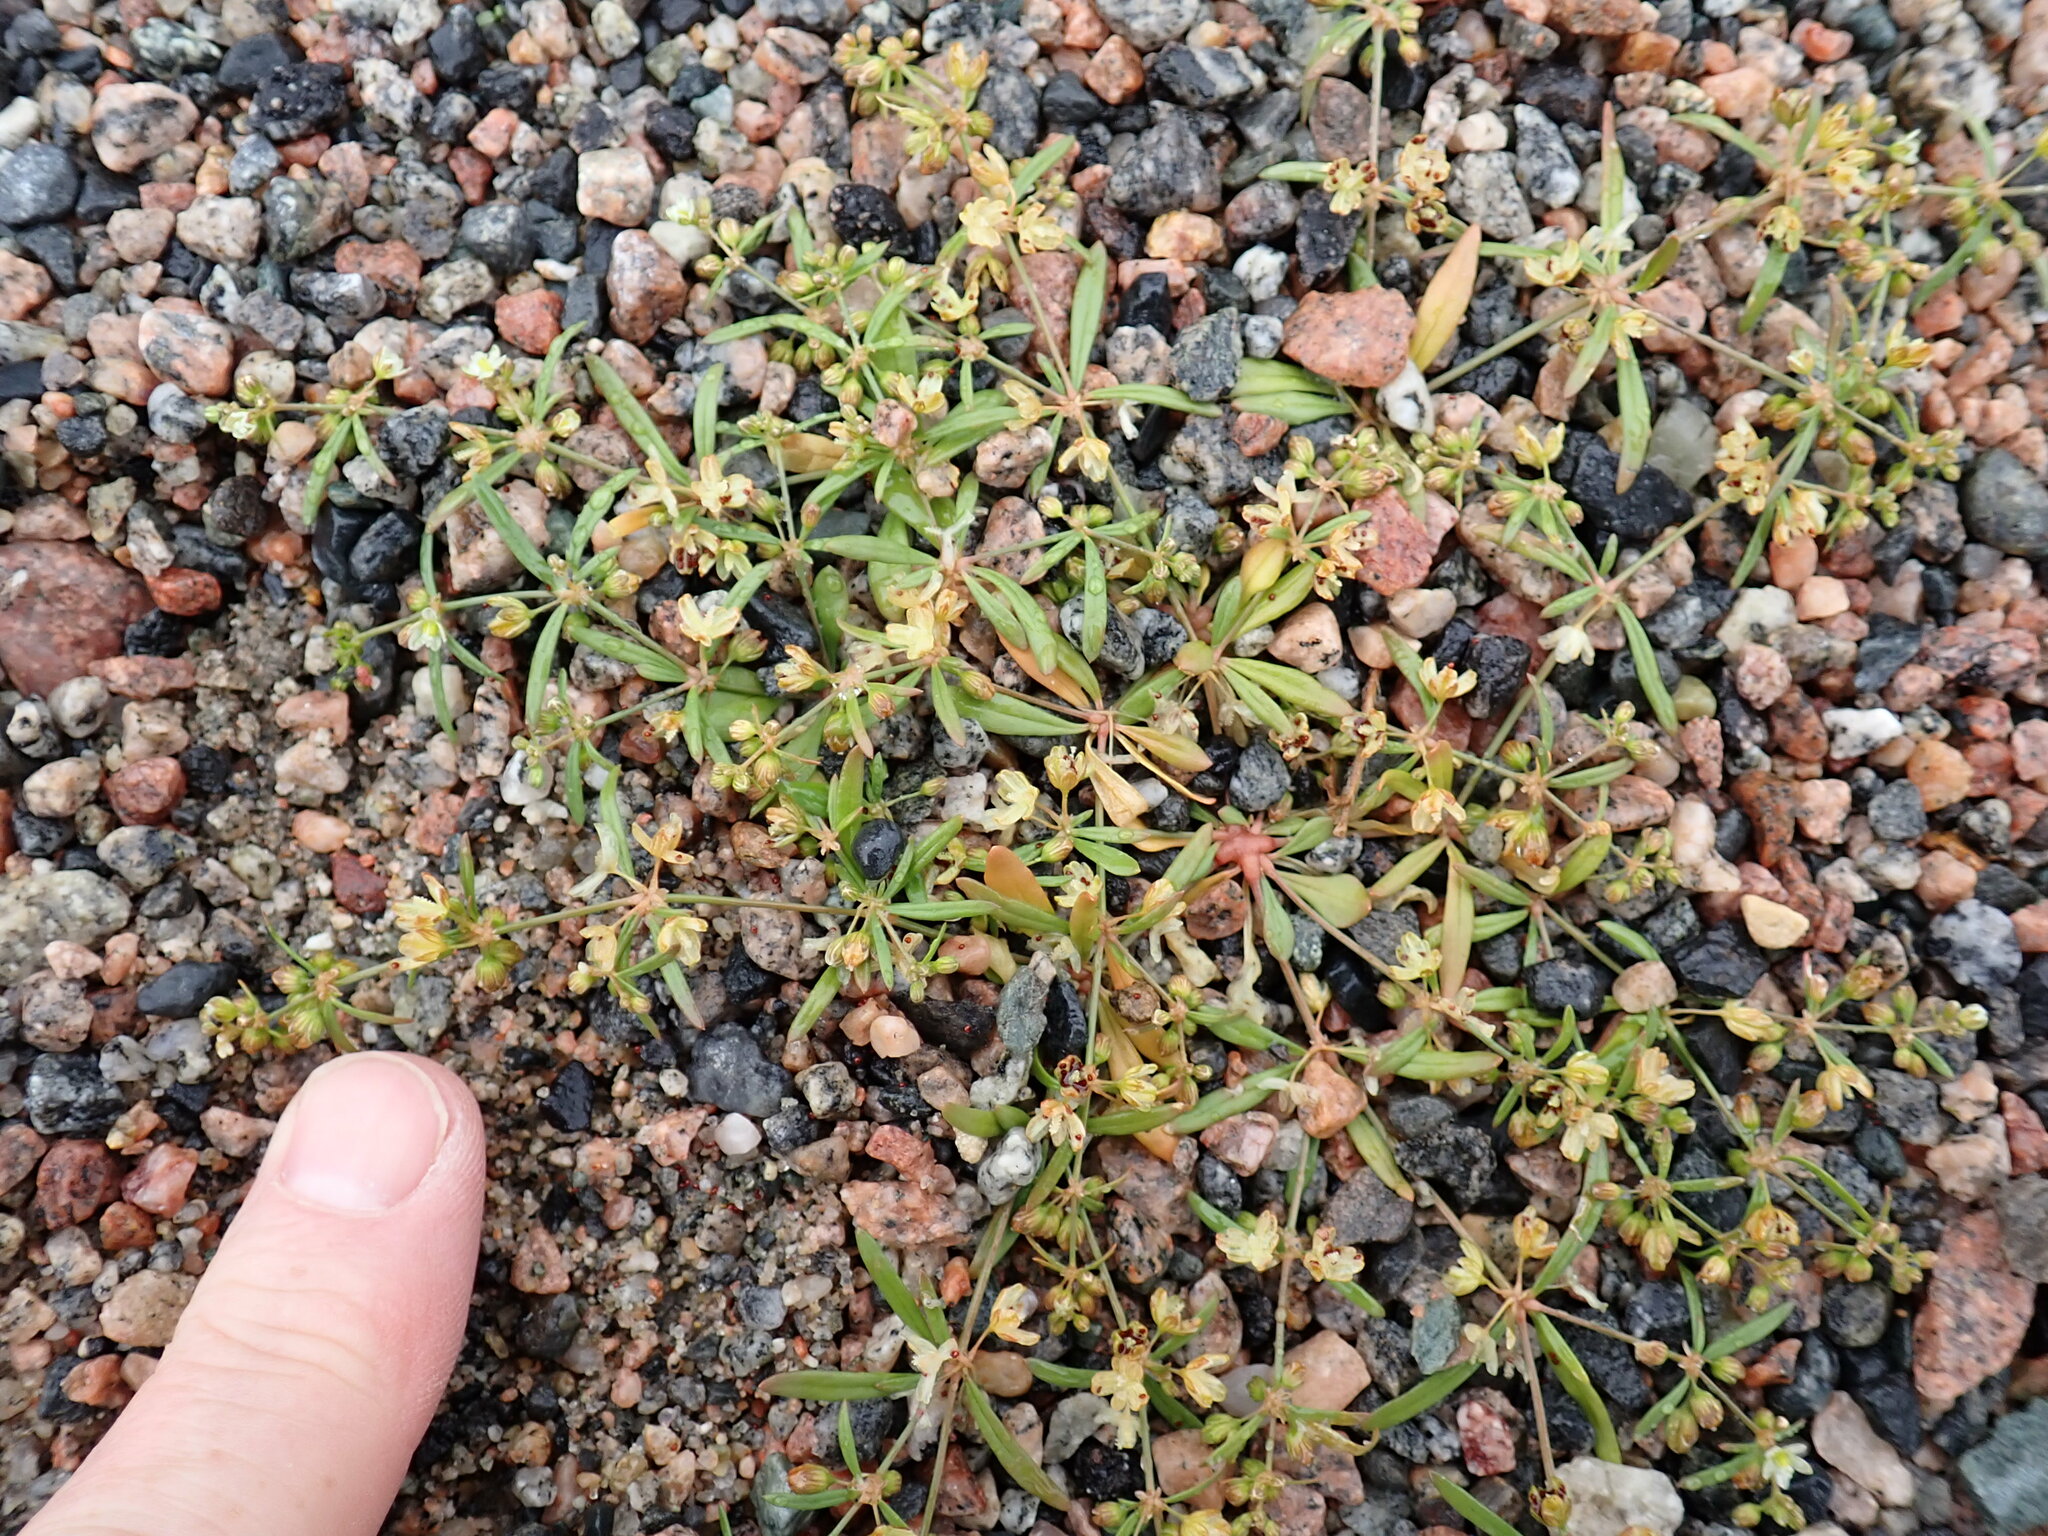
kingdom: Plantae
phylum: Tracheophyta
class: Magnoliopsida
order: Caryophyllales
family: Molluginaceae
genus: Mollugo
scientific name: Mollugo verticillata
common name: Green carpetweed
